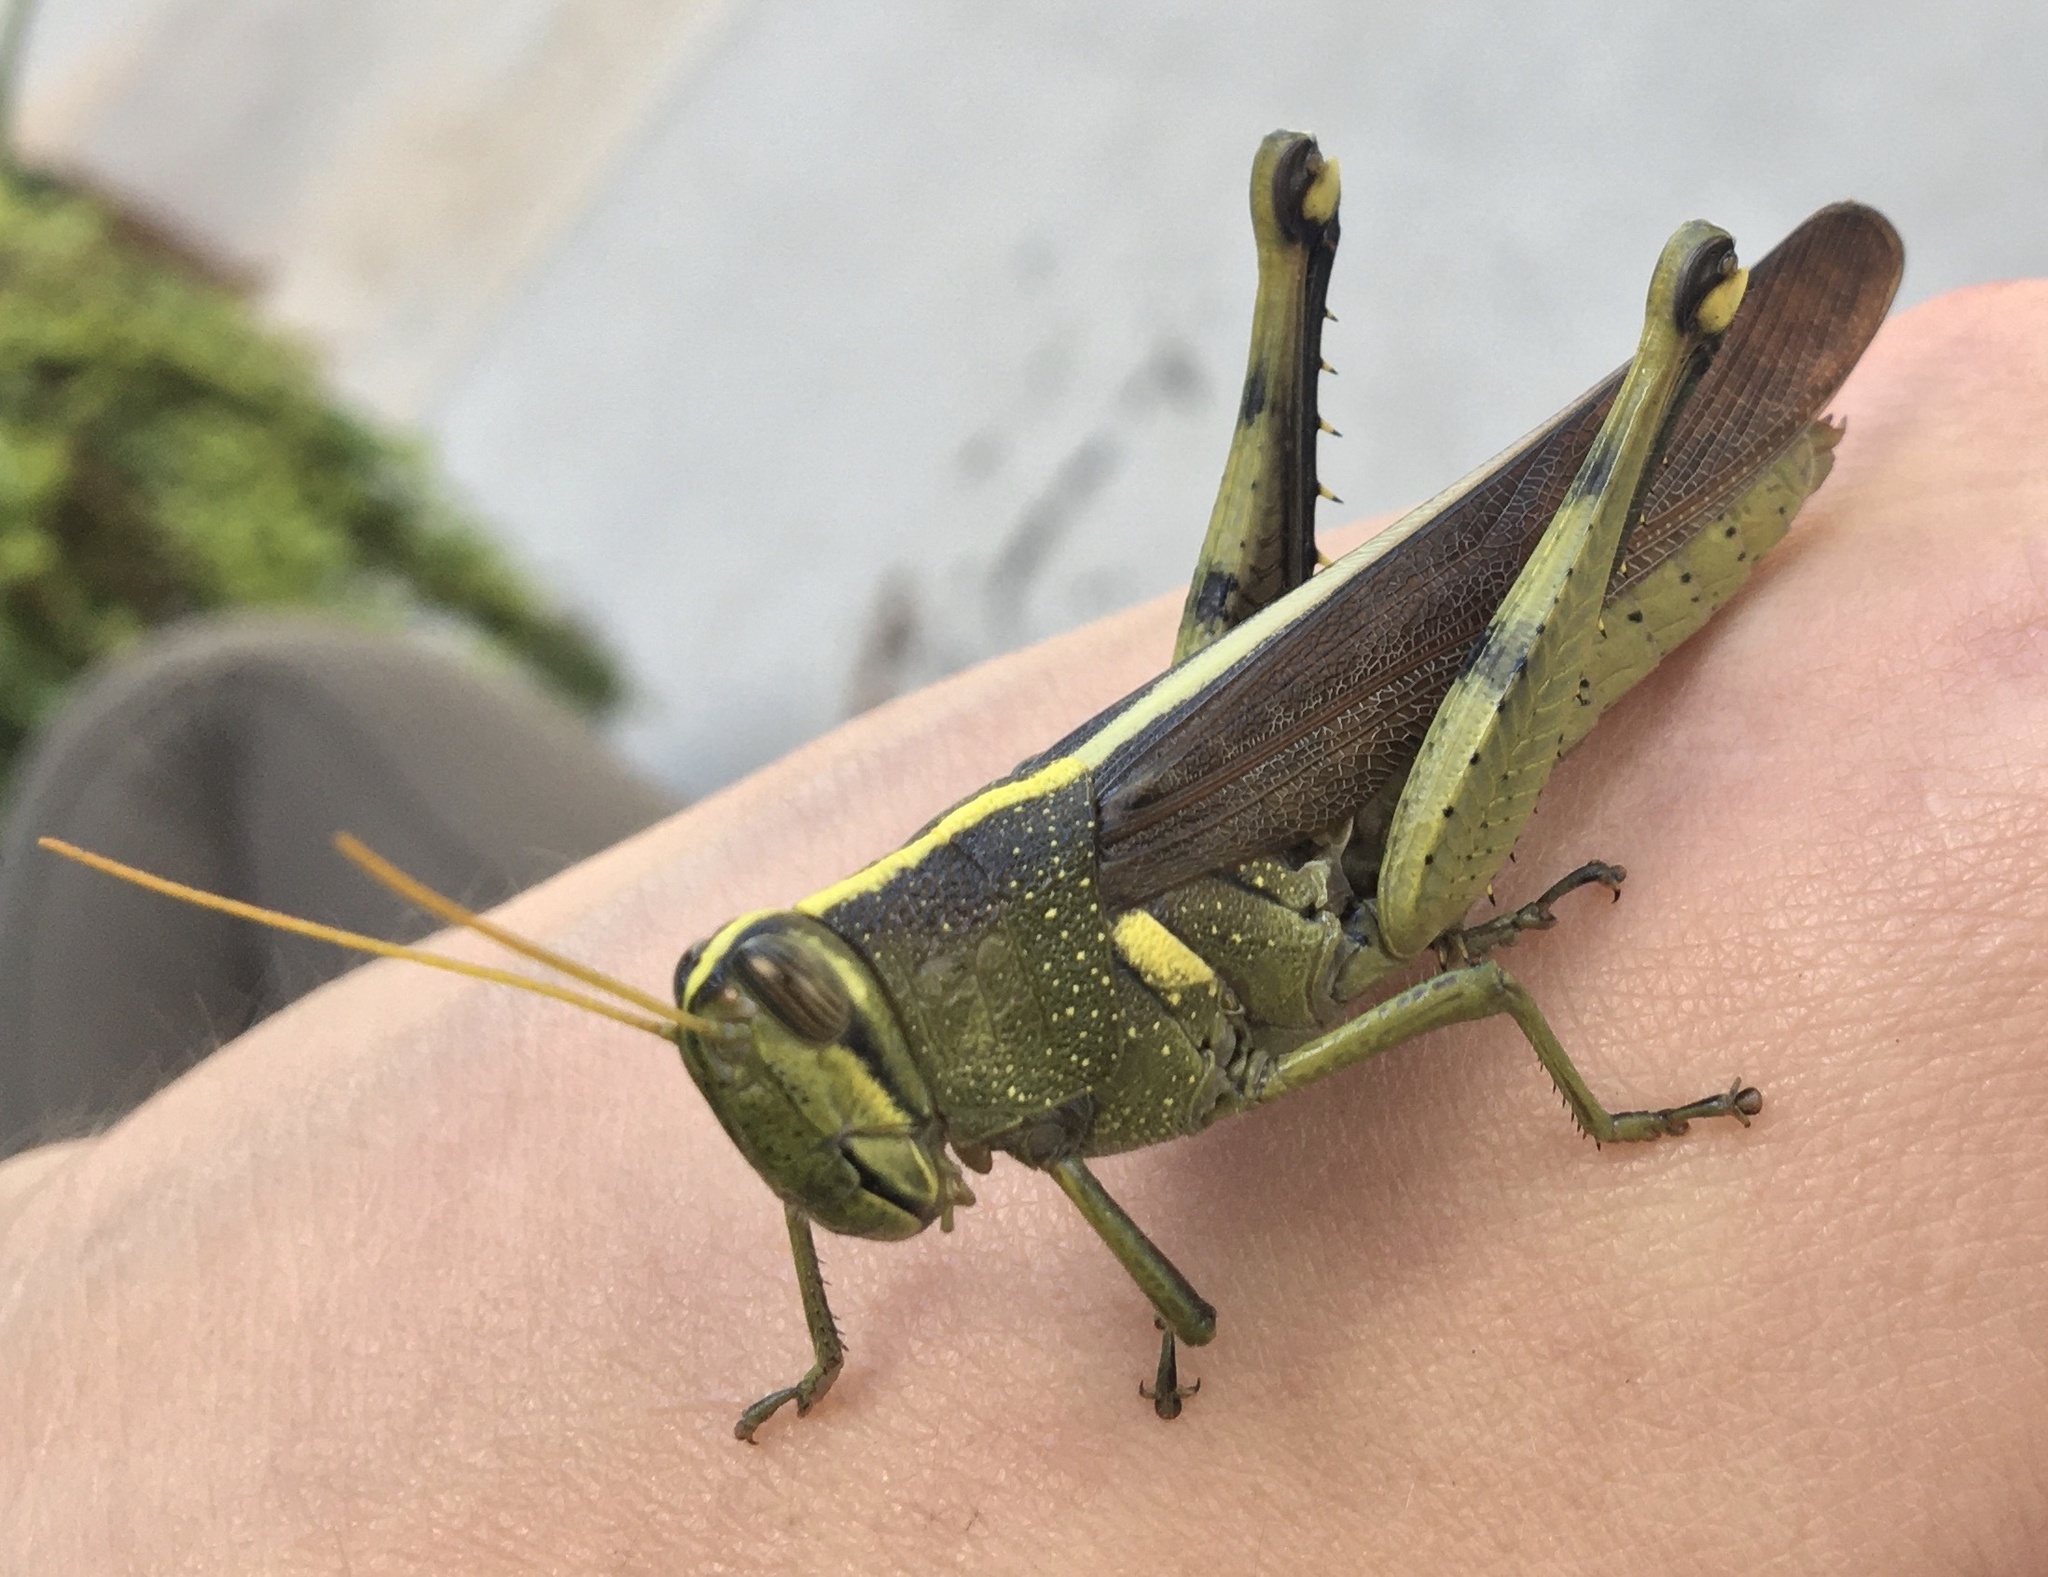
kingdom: Animalia
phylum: Arthropoda
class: Insecta
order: Orthoptera
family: Acrididae
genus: Schistocerca
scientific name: Schistocerca obscura
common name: Obscure bird grasshopper
